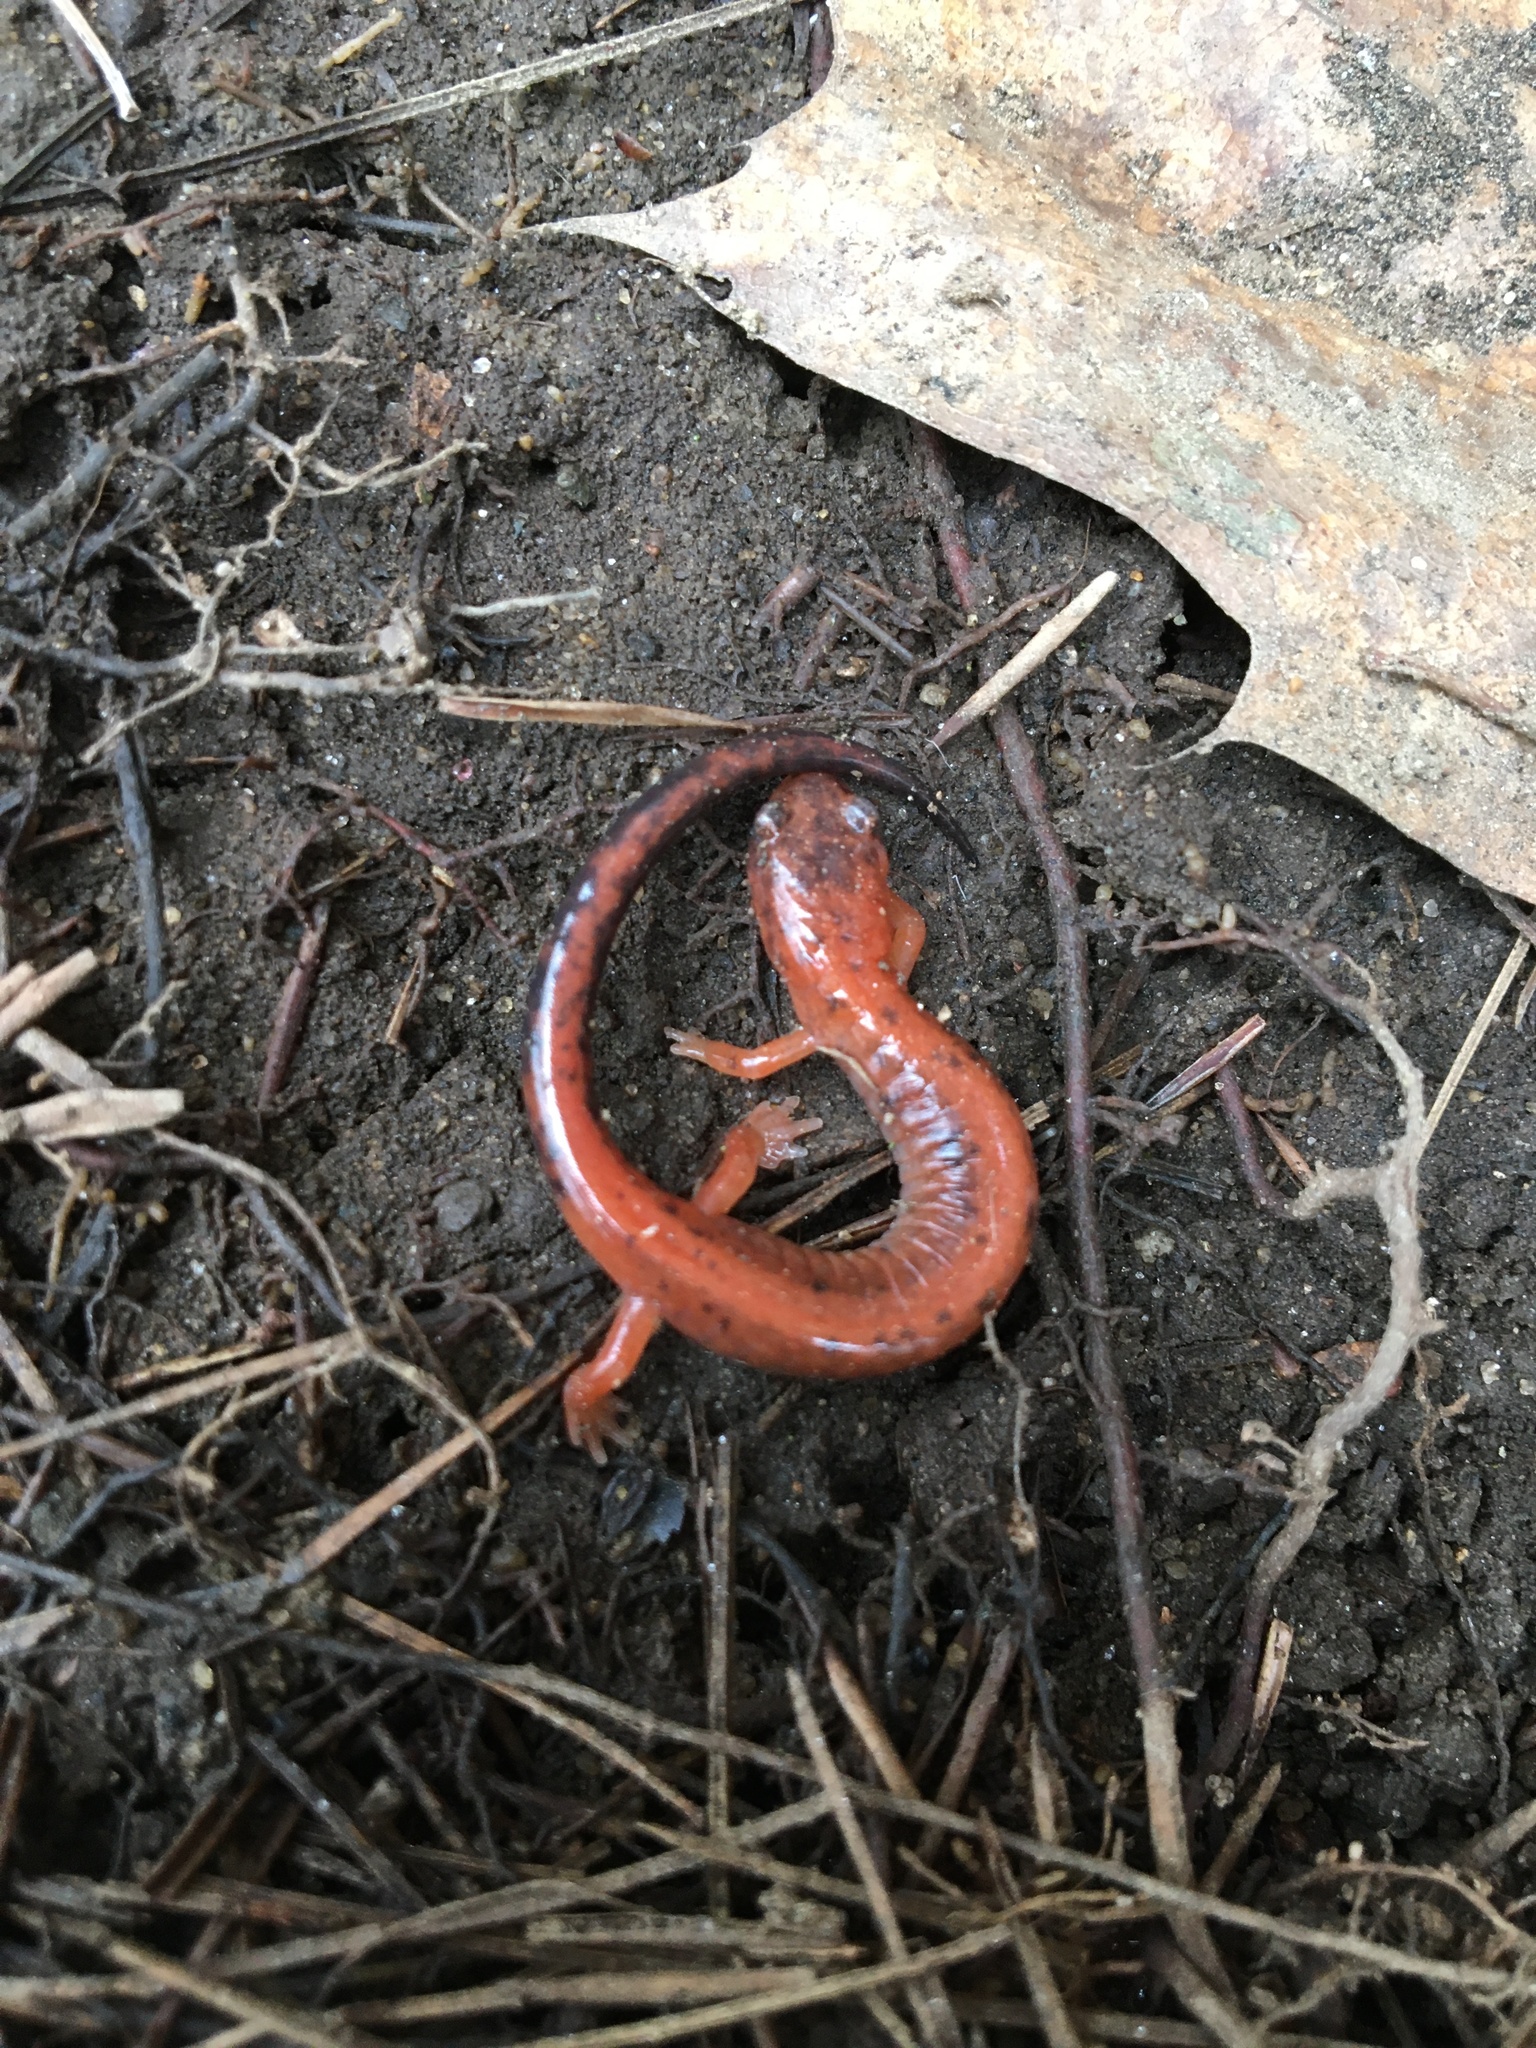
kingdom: Animalia
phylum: Chordata
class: Amphibia
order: Caudata
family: Plethodontidae
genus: Plethodon
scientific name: Plethodon cinereus
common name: Redback salamander
